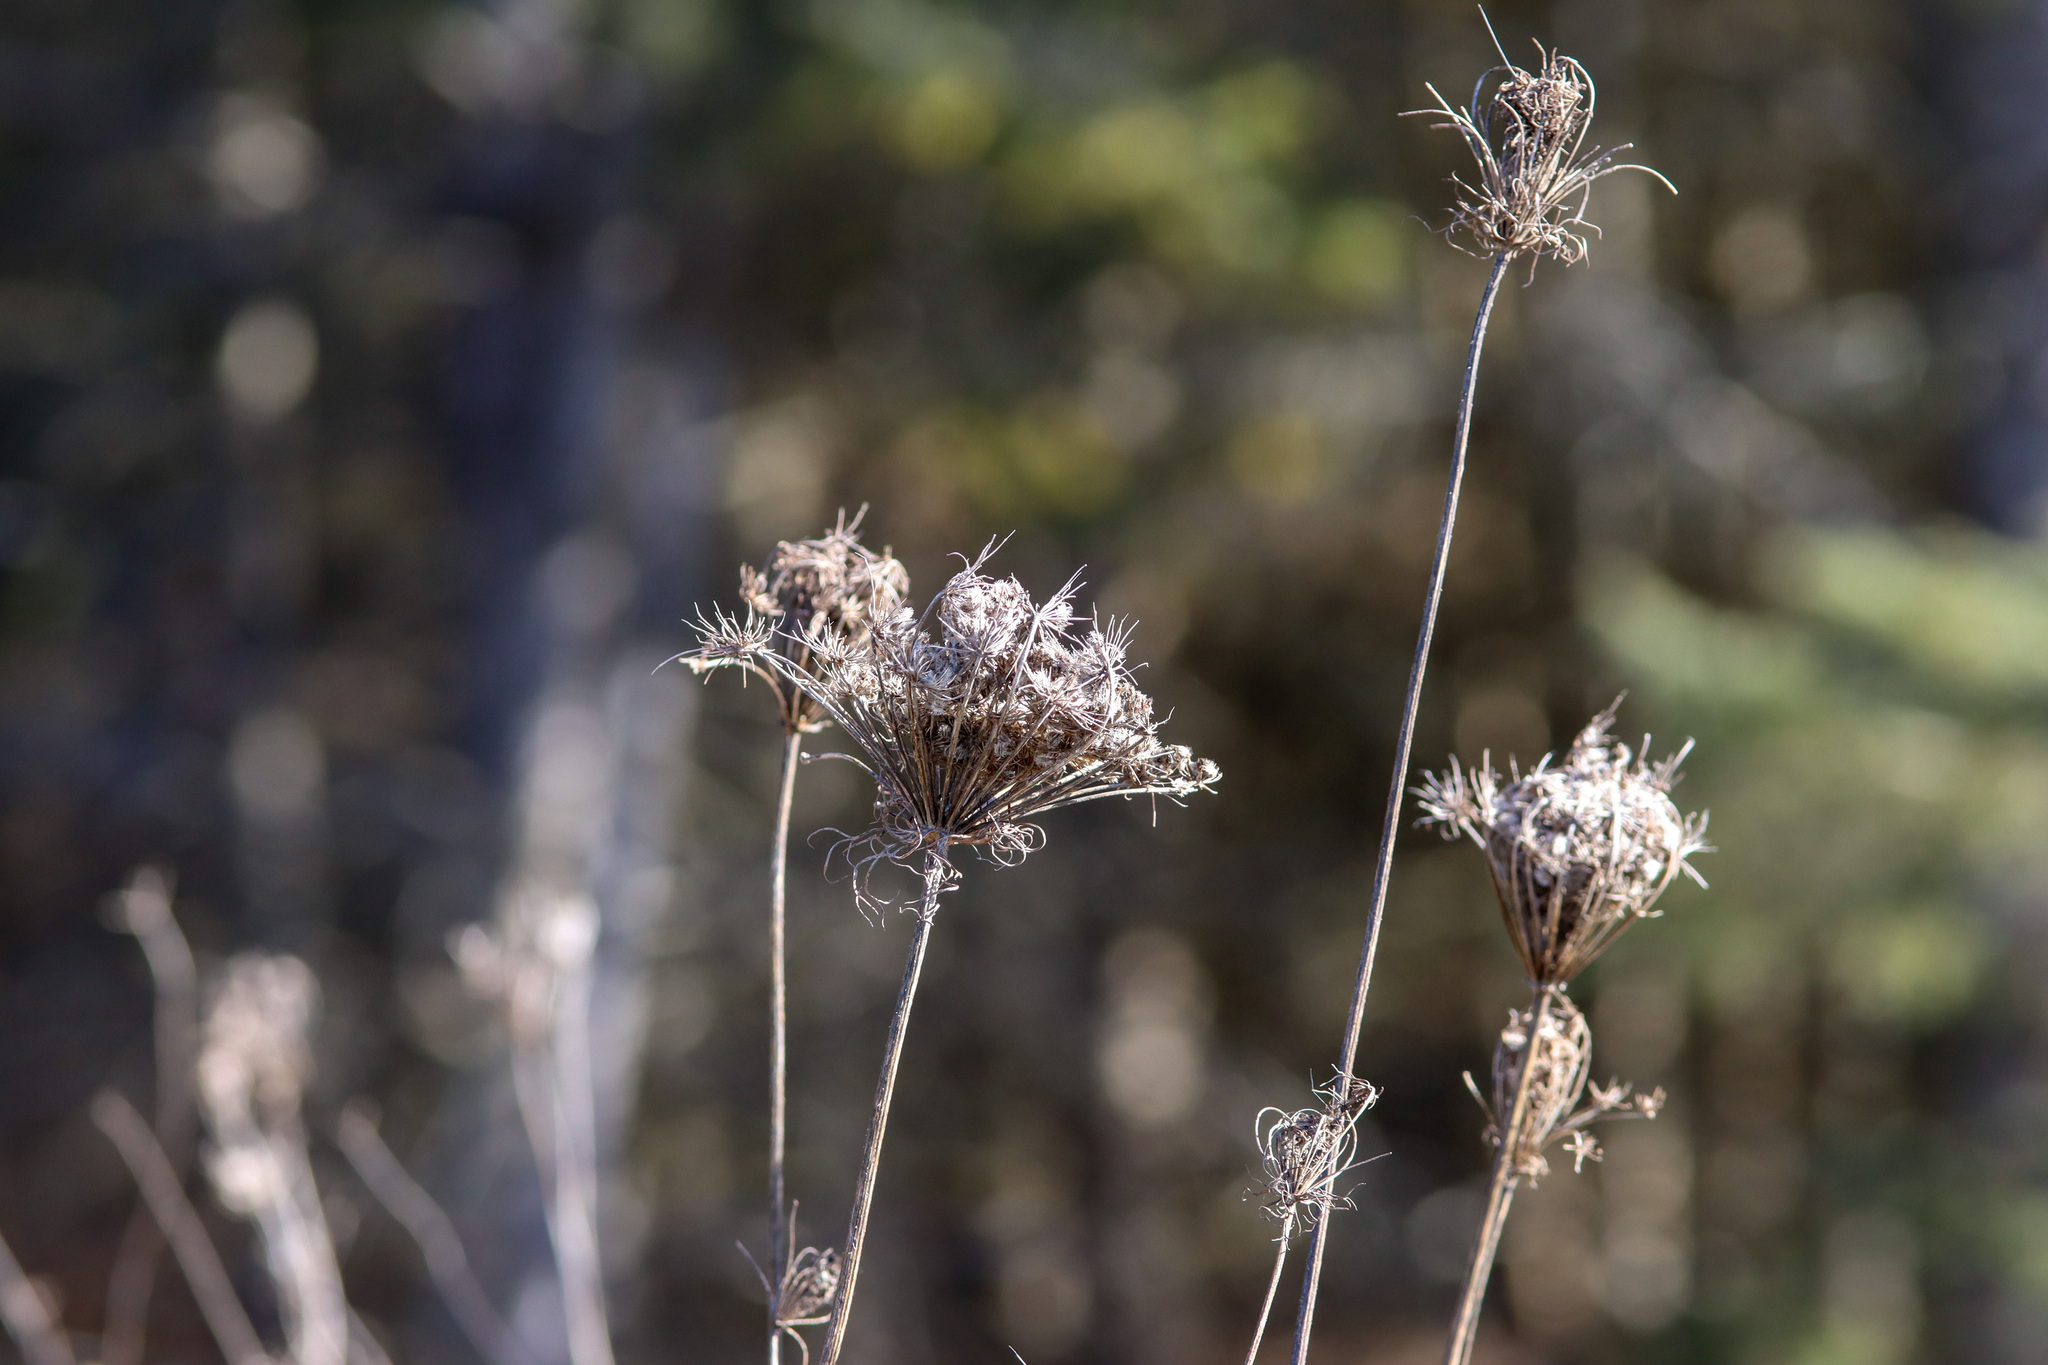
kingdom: Plantae
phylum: Tracheophyta
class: Magnoliopsida
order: Apiales
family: Apiaceae
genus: Daucus
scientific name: Daucus carota
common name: Wild carrot
